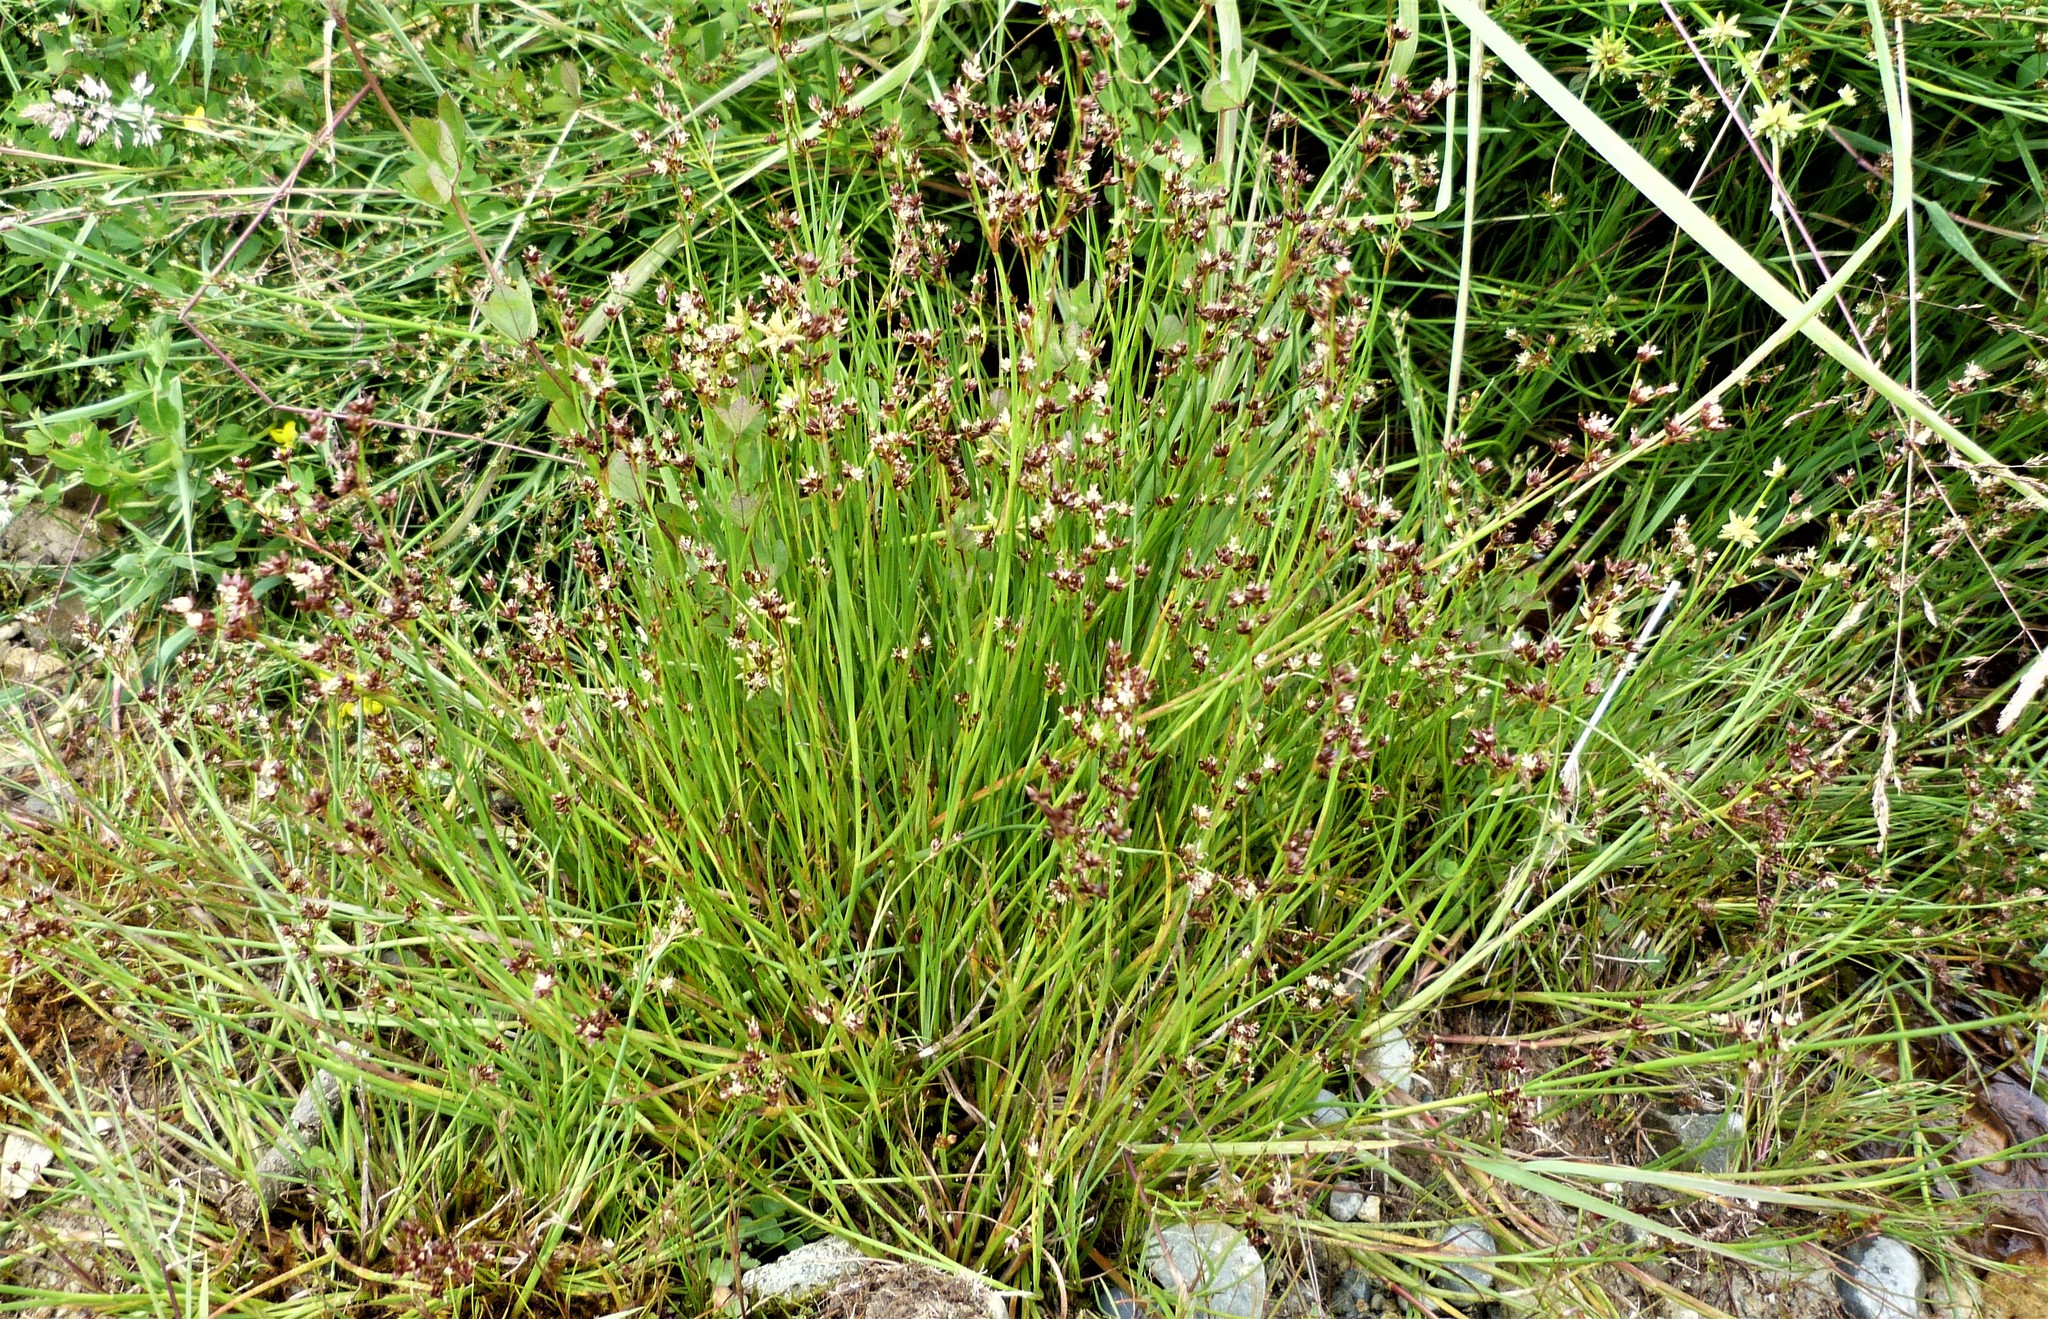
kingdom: Plantae
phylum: Tracheophyta
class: Liliopsida
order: Poales
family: Juncaceae
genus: Juncus
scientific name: Juncus articulatus
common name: Jointed rush
